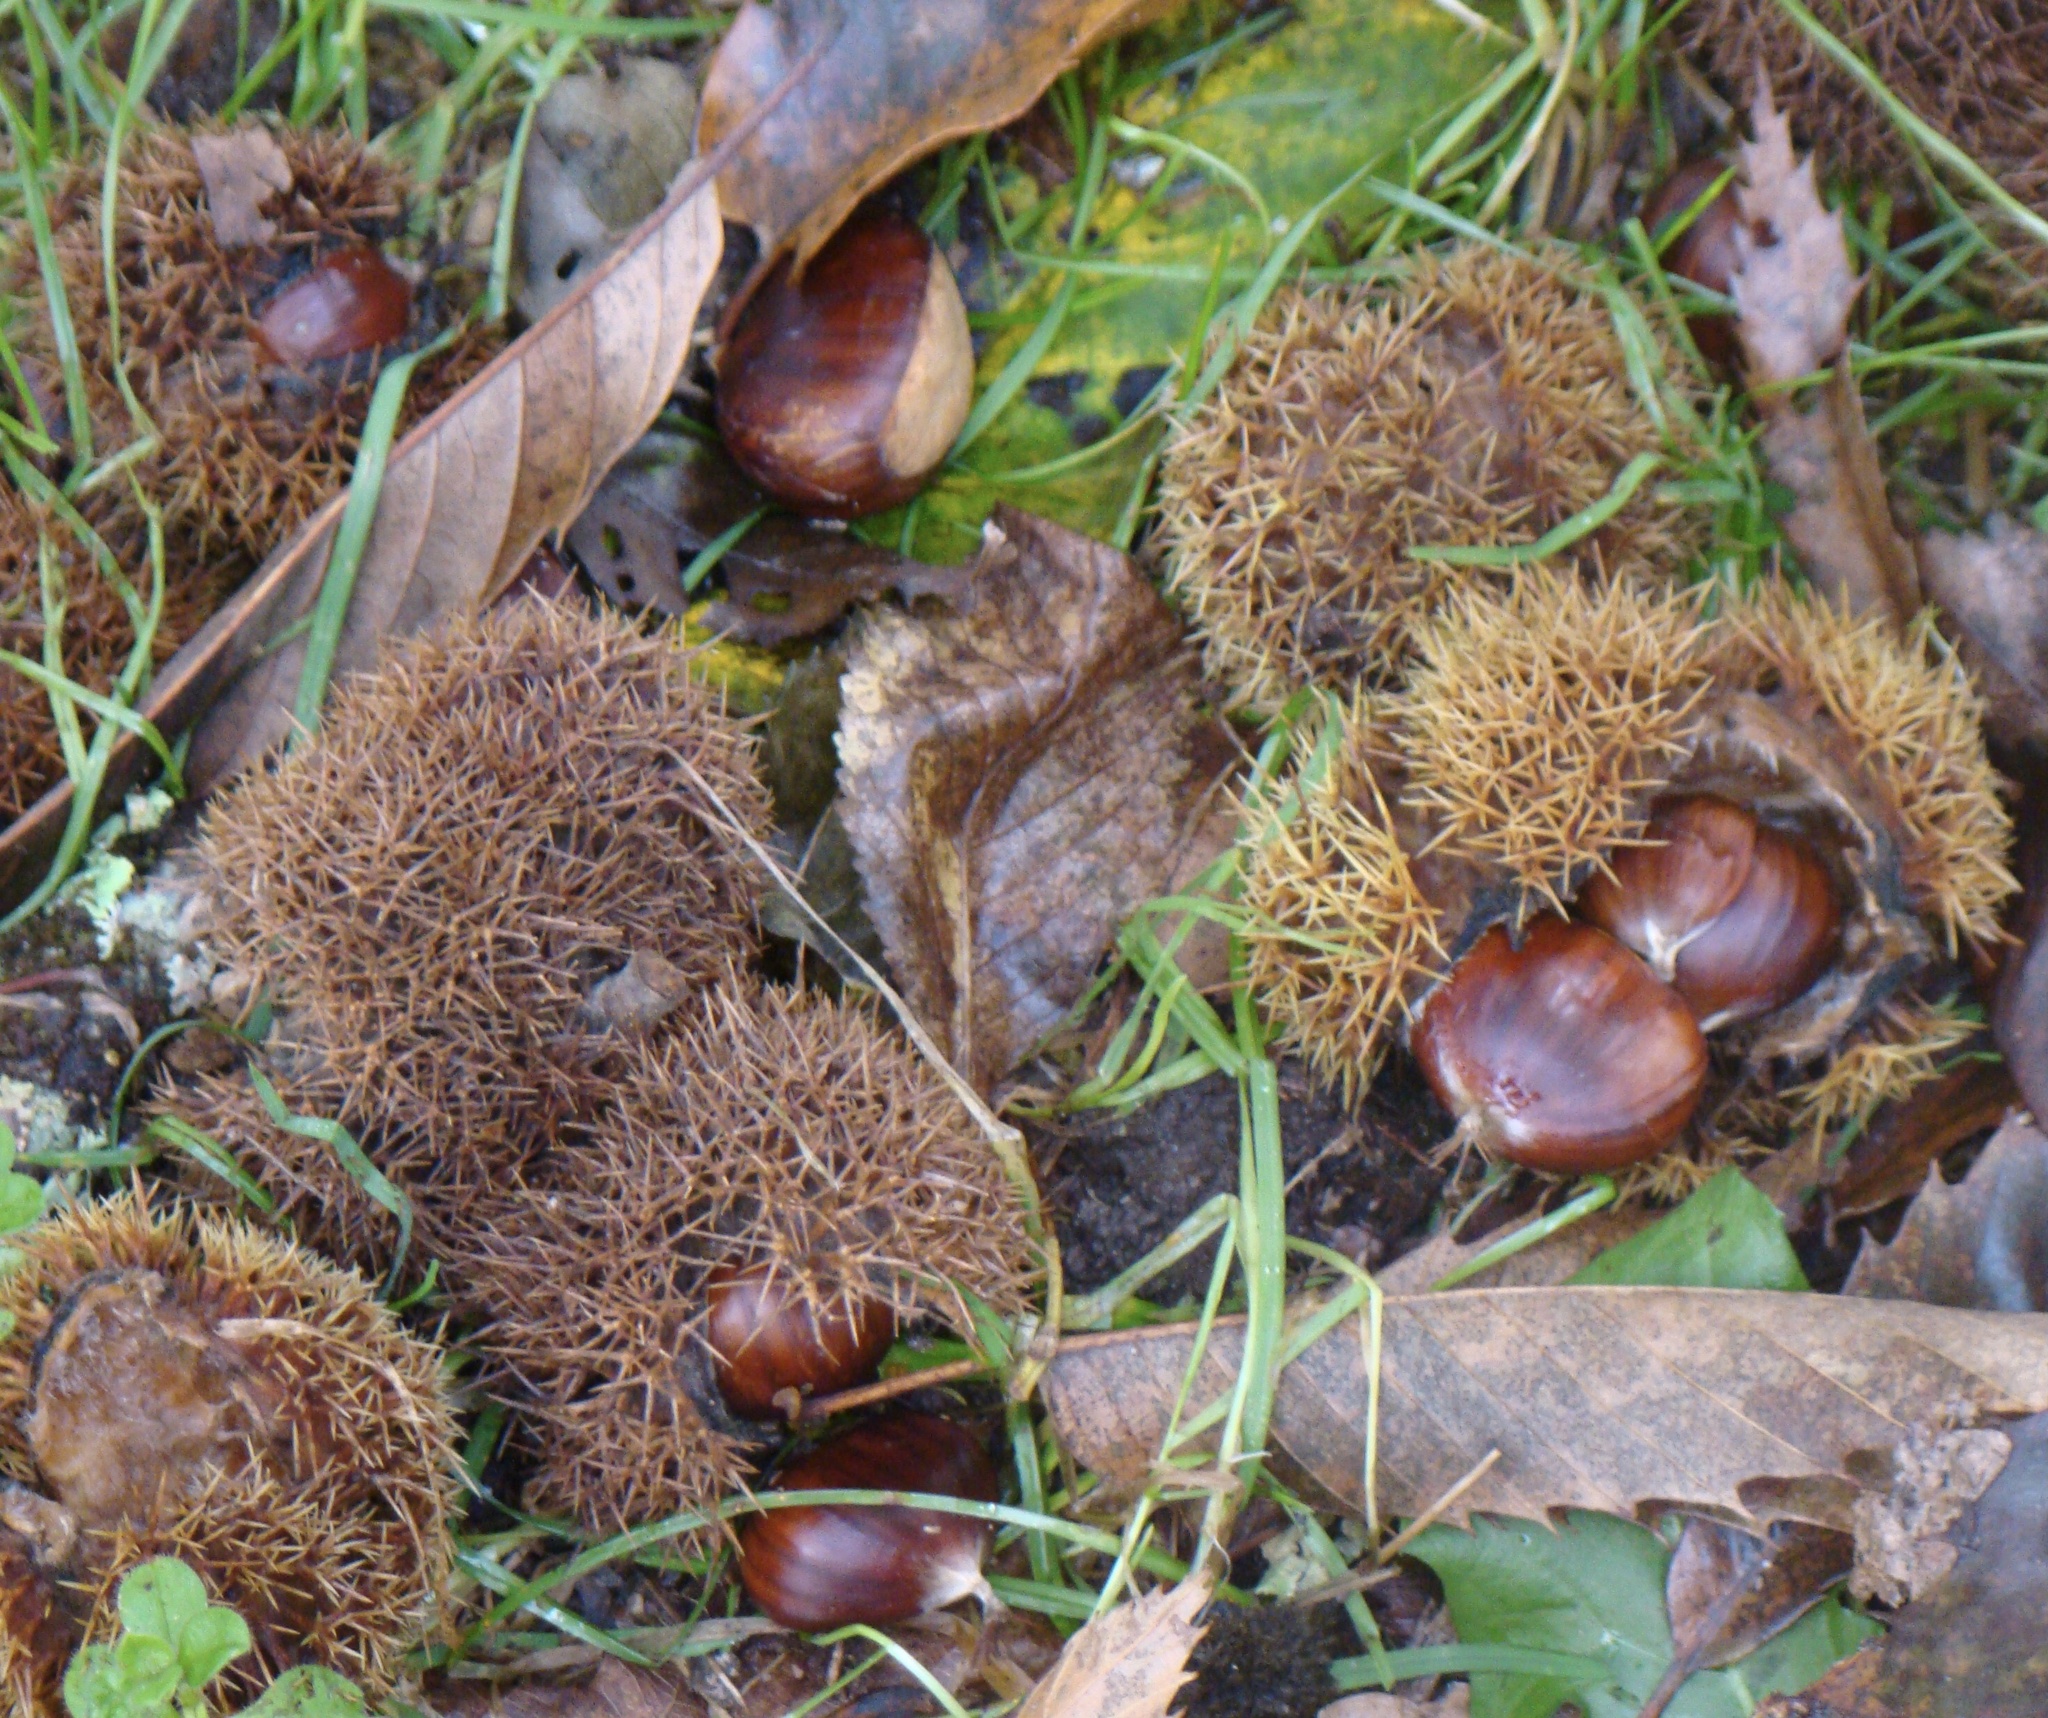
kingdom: Plantae
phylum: Tracheophyta
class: Magnoliopsida
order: Fagales
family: Fagaceae
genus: Castanea
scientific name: Castanea sativa
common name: Sweet chestnut
